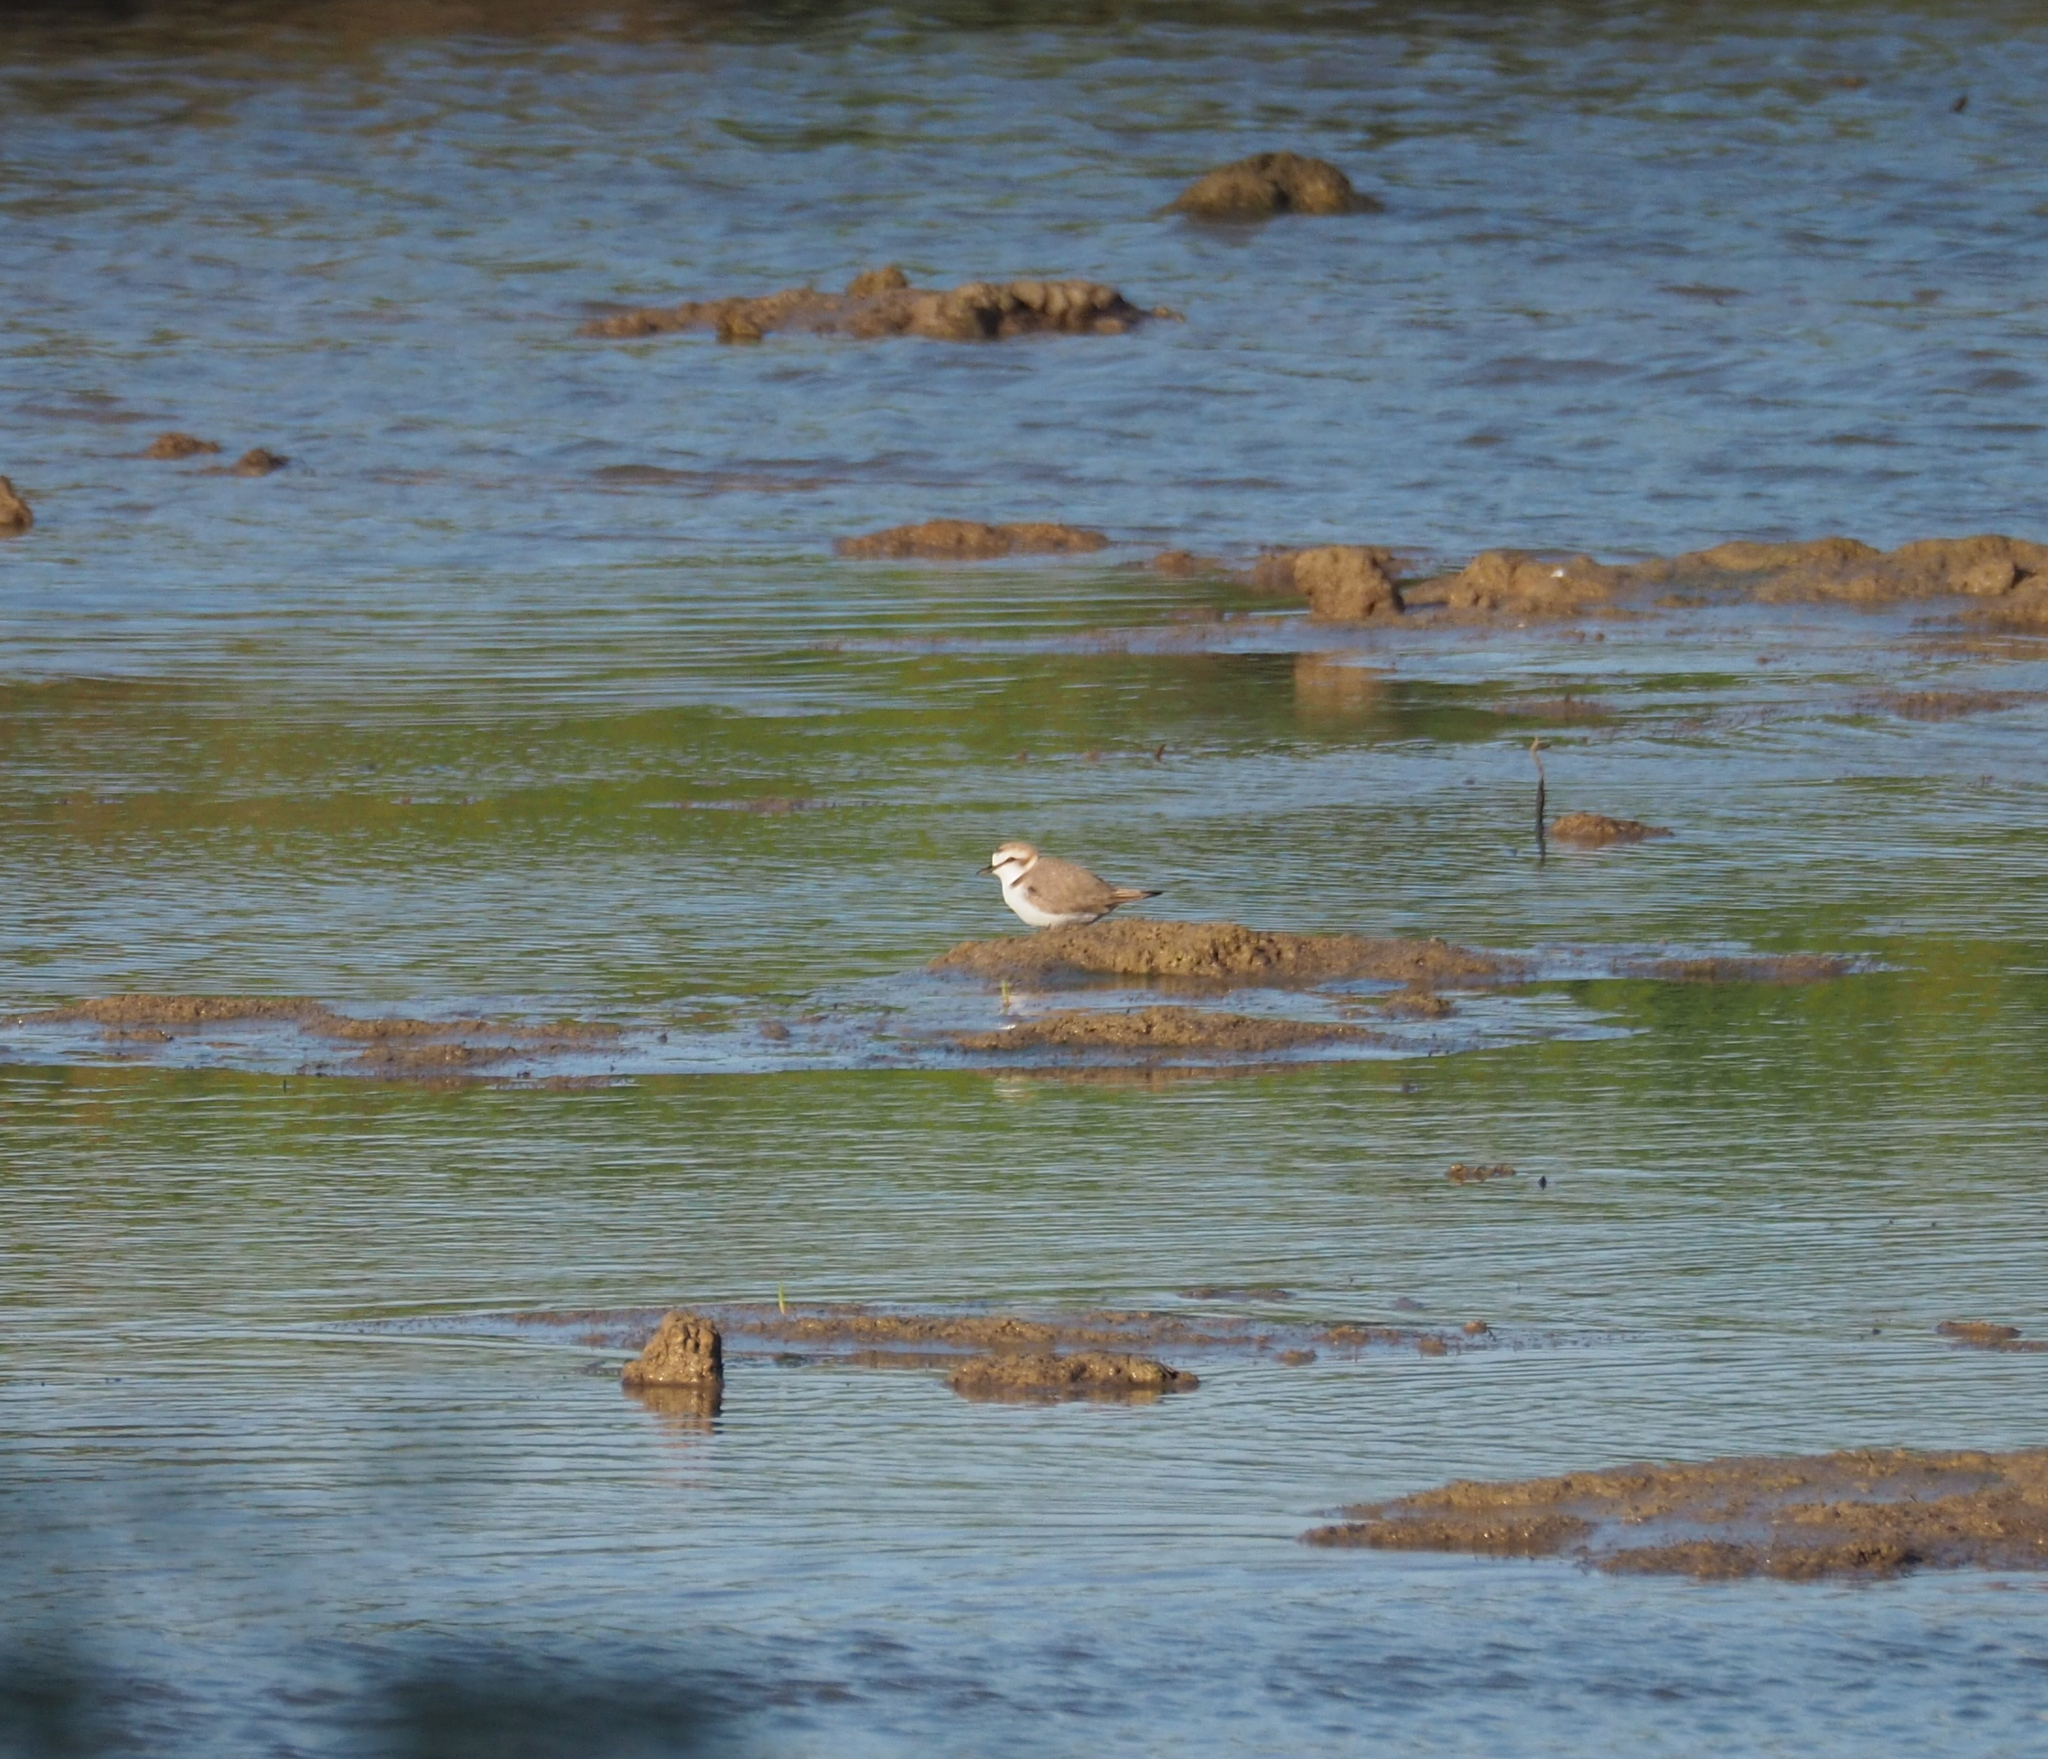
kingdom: Animalia
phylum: Chordata
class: Aves
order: Charadriiformes
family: Charadriidae
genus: Charadrius
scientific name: Charadrius alexandrinus
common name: Kentish plover
